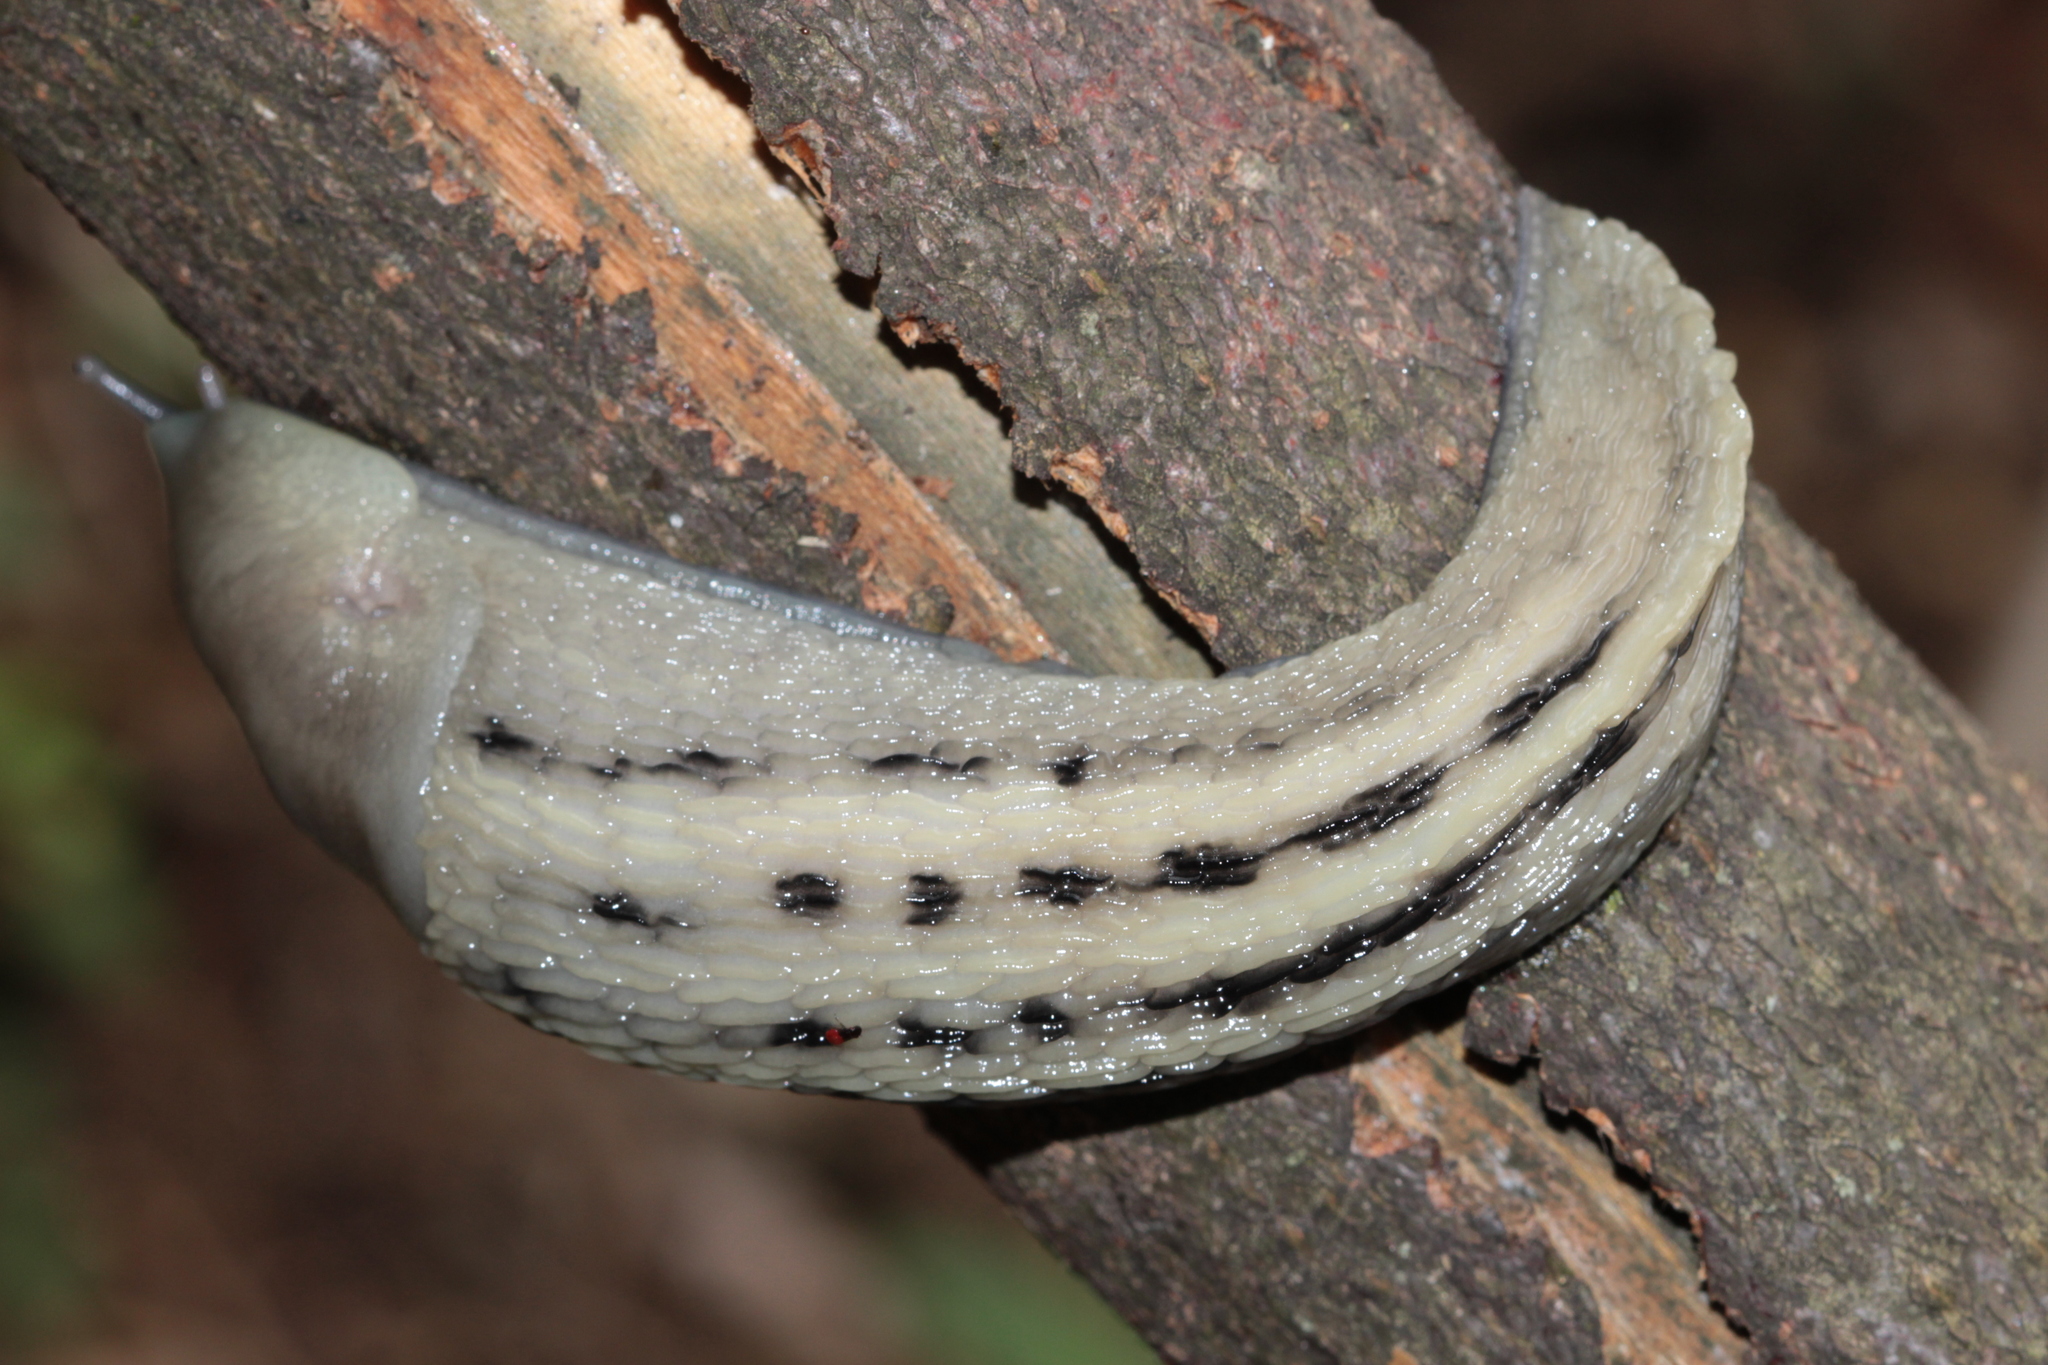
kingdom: Animalia
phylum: Mollusca
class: Gastropoda
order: Stylommatophora
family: Limacidae
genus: Limax
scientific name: Limax cinereoniger
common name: Ash-black slug
